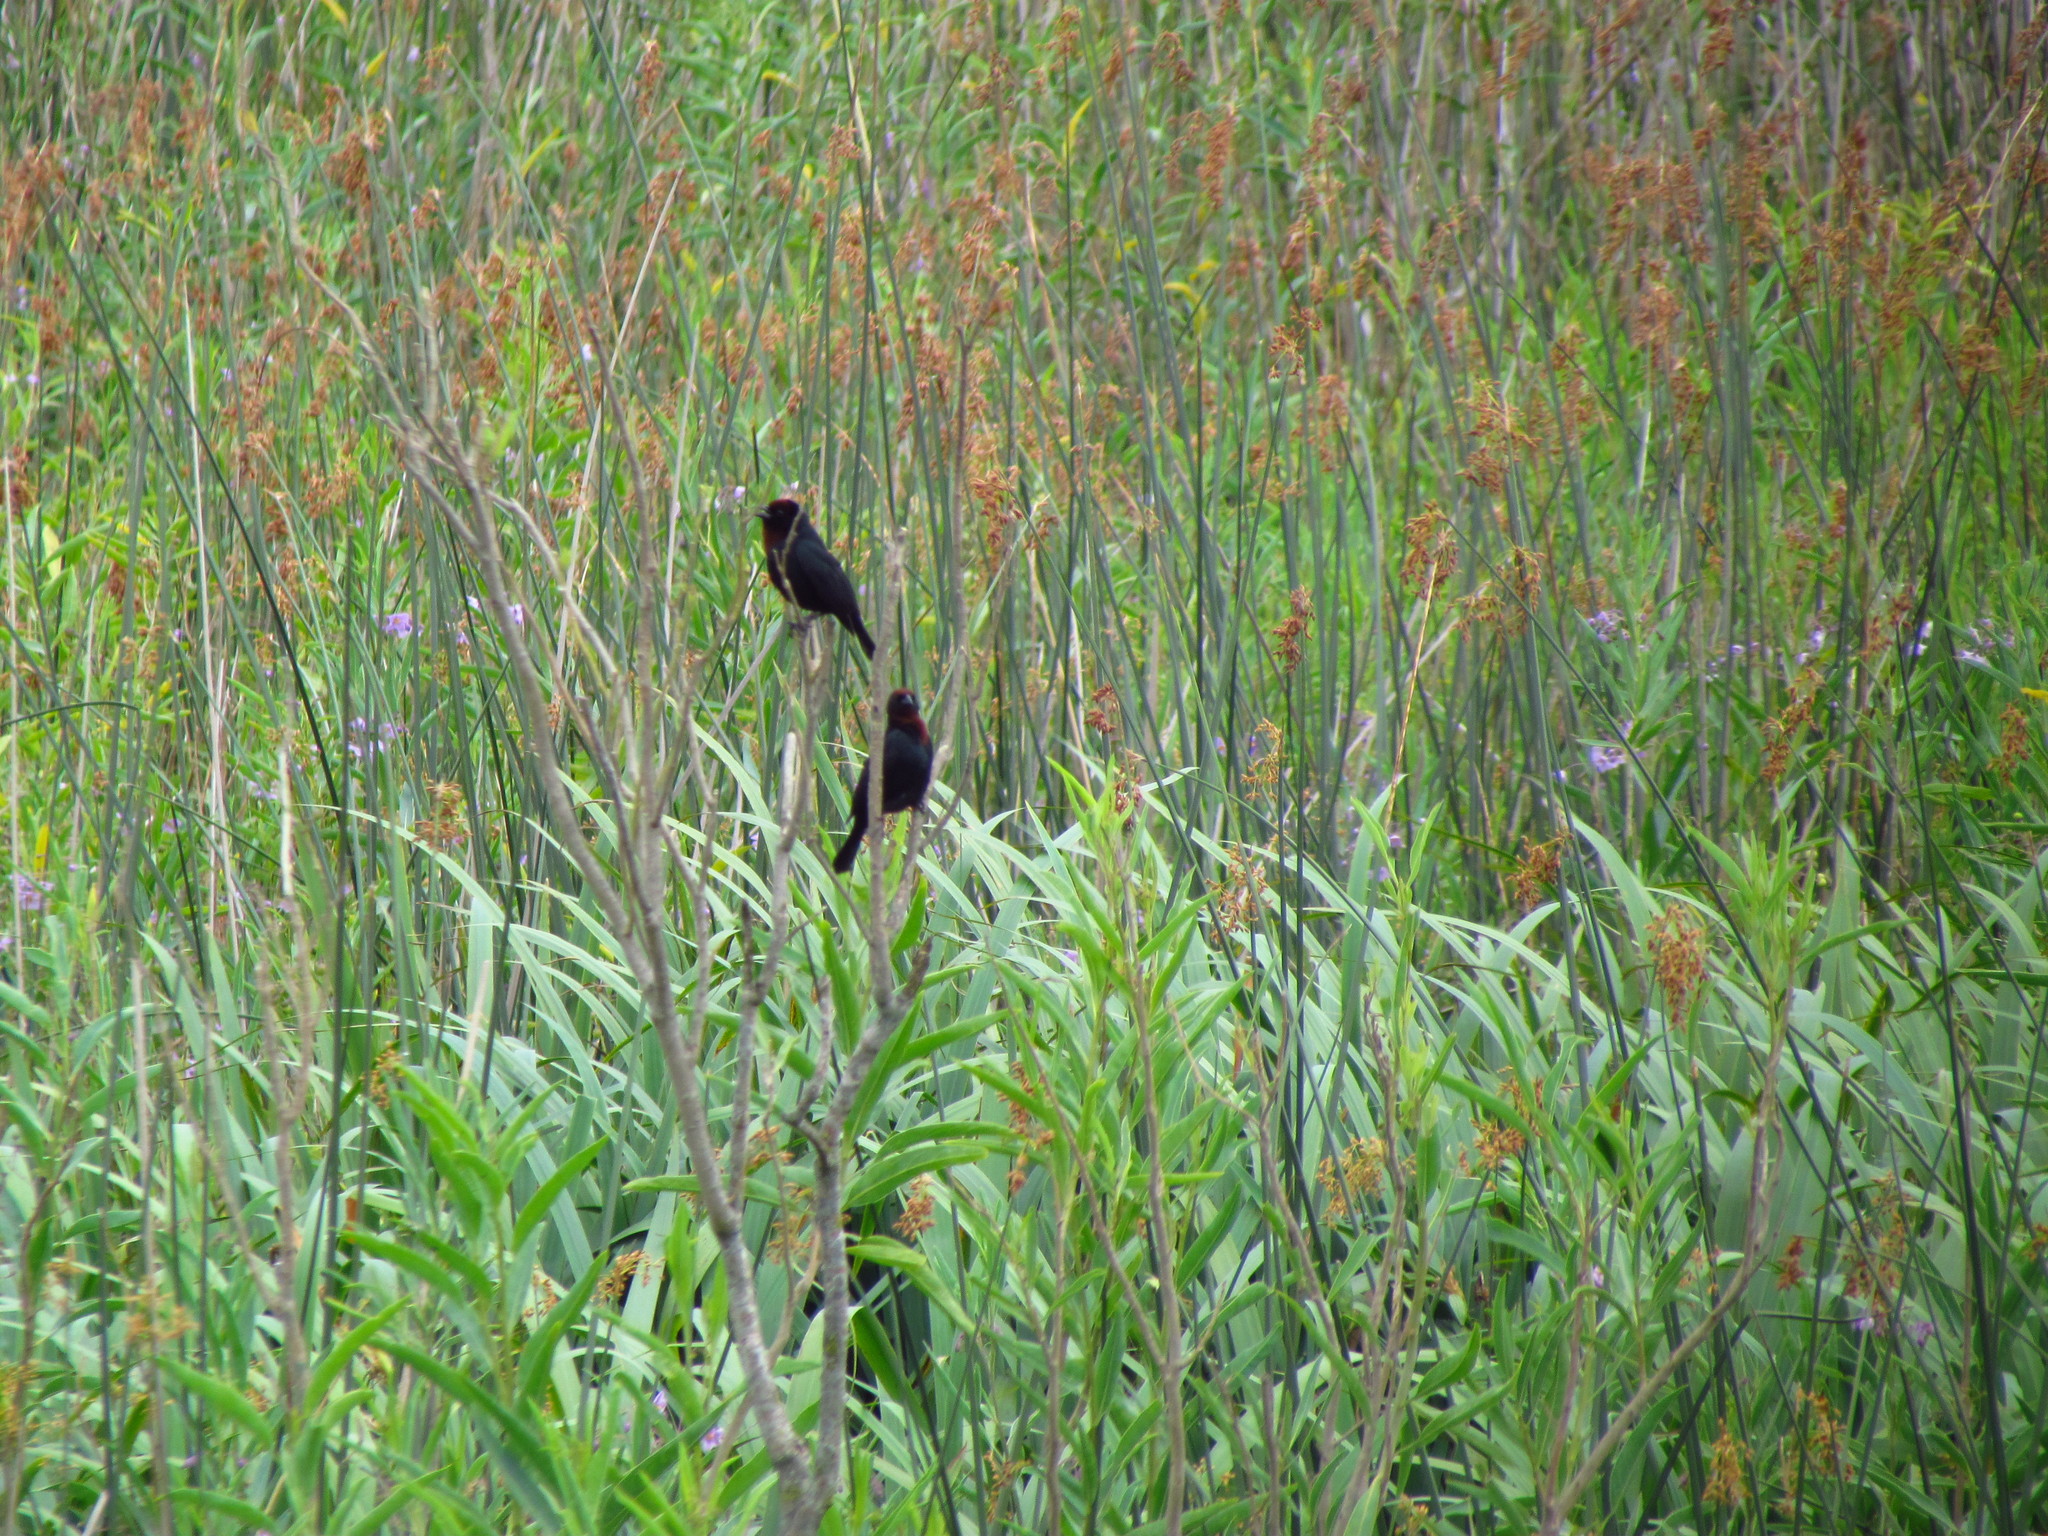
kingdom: Animalia
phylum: Chordata
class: Aves
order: Passeriformes
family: Icteridae
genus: Chrysomus
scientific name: Chrysomus ruficapillus
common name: Chestnut-capped blackbird
